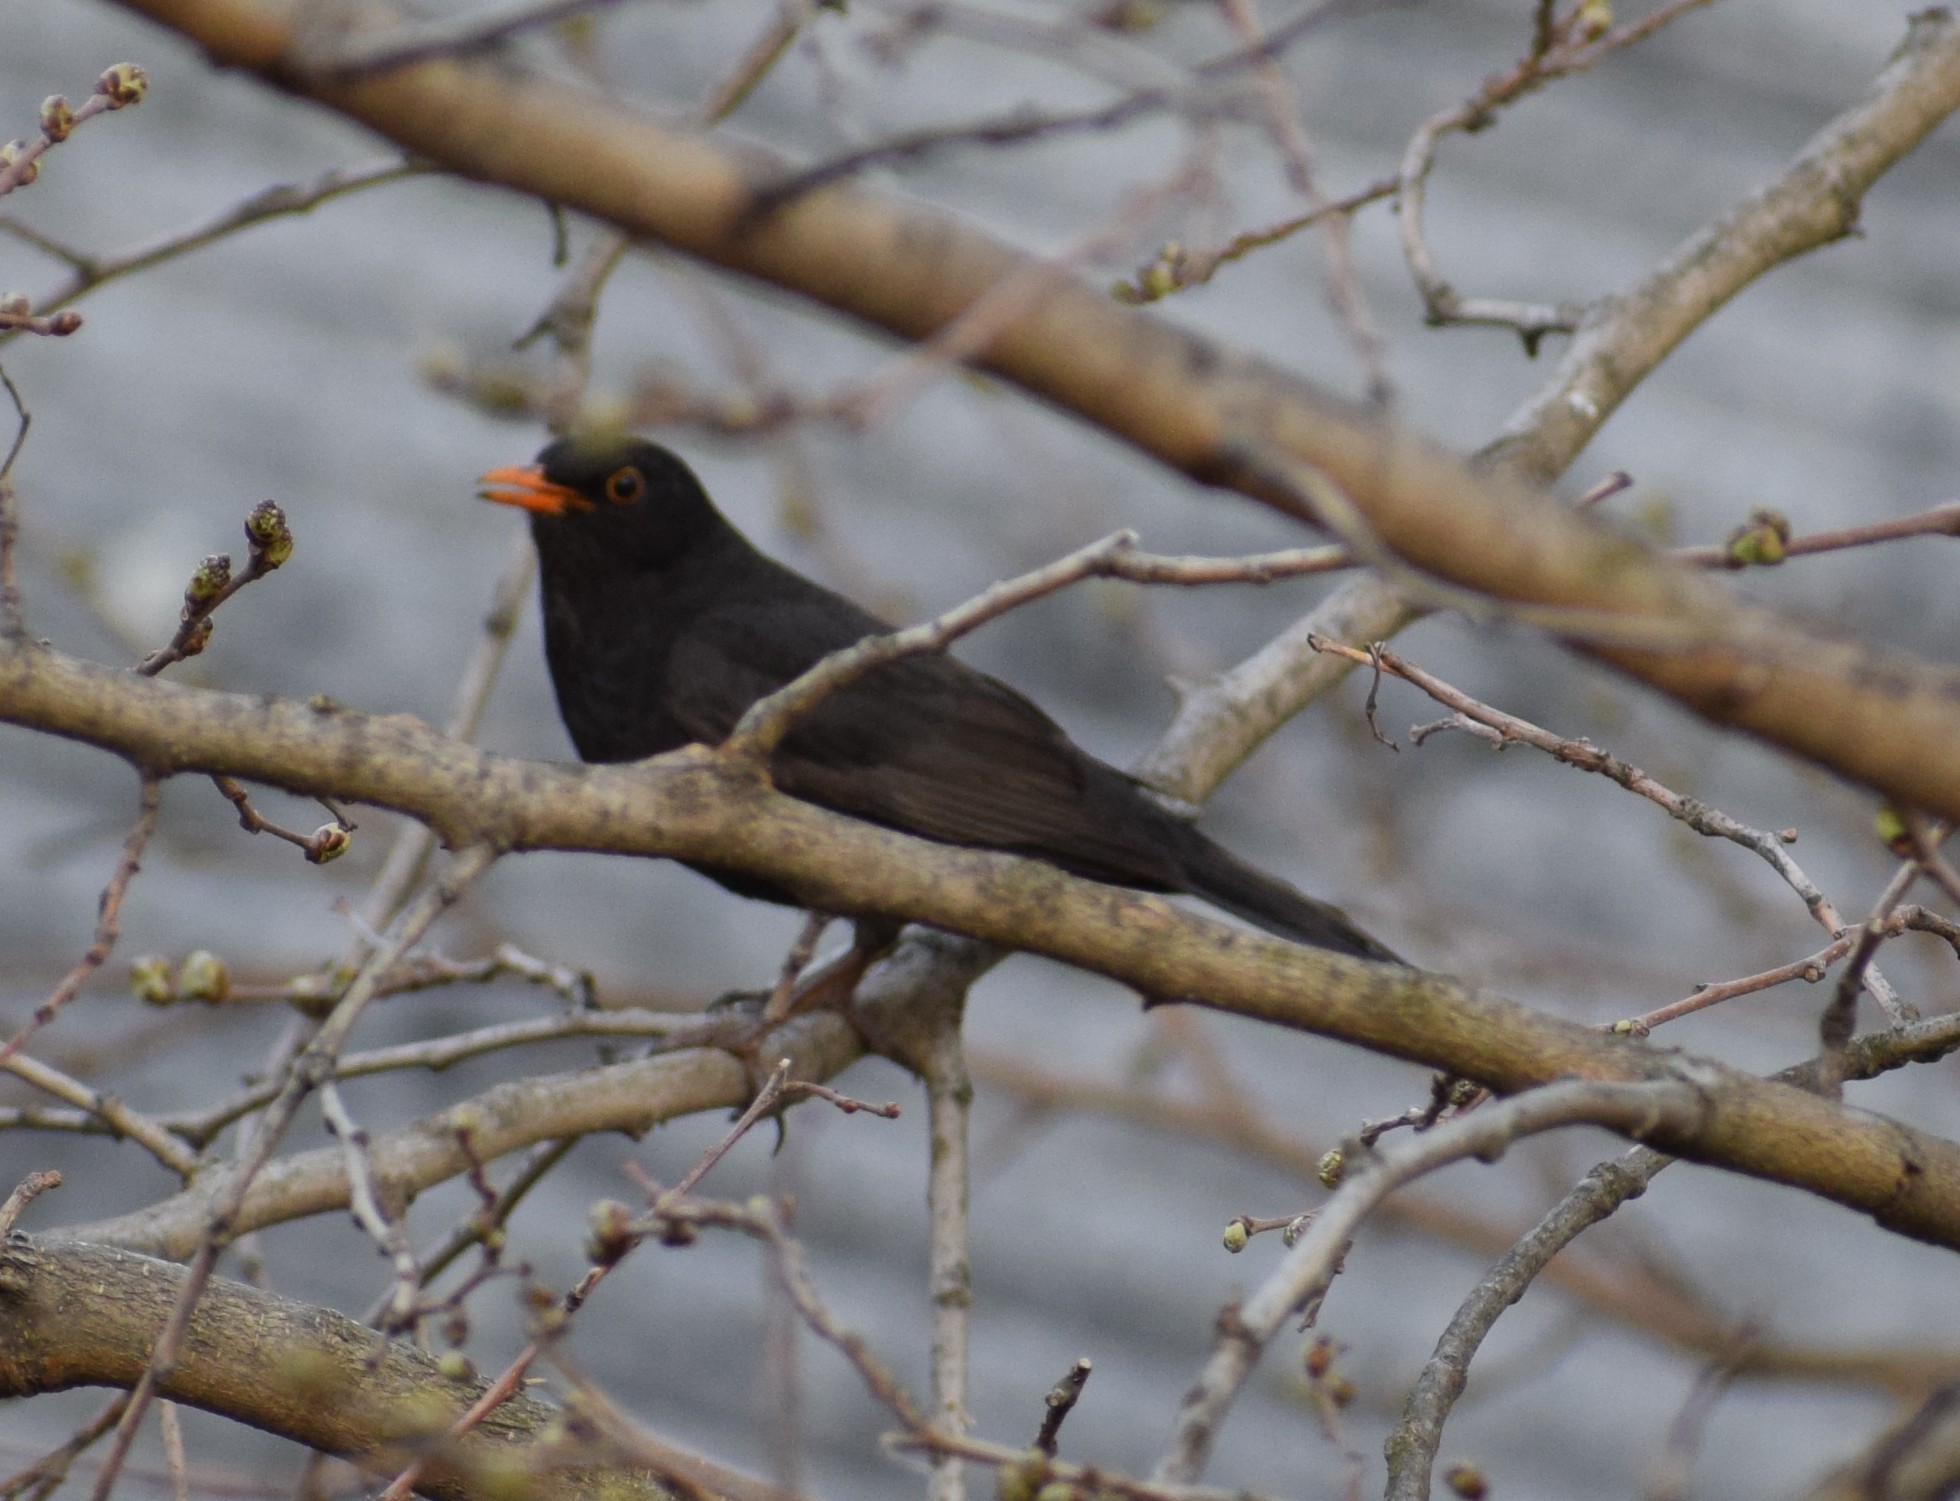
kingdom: Animalia
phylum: Chordata
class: Aves
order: Passeriformes
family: Turdidae
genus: Turdus
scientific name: Turdus merula
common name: Common blackbird
